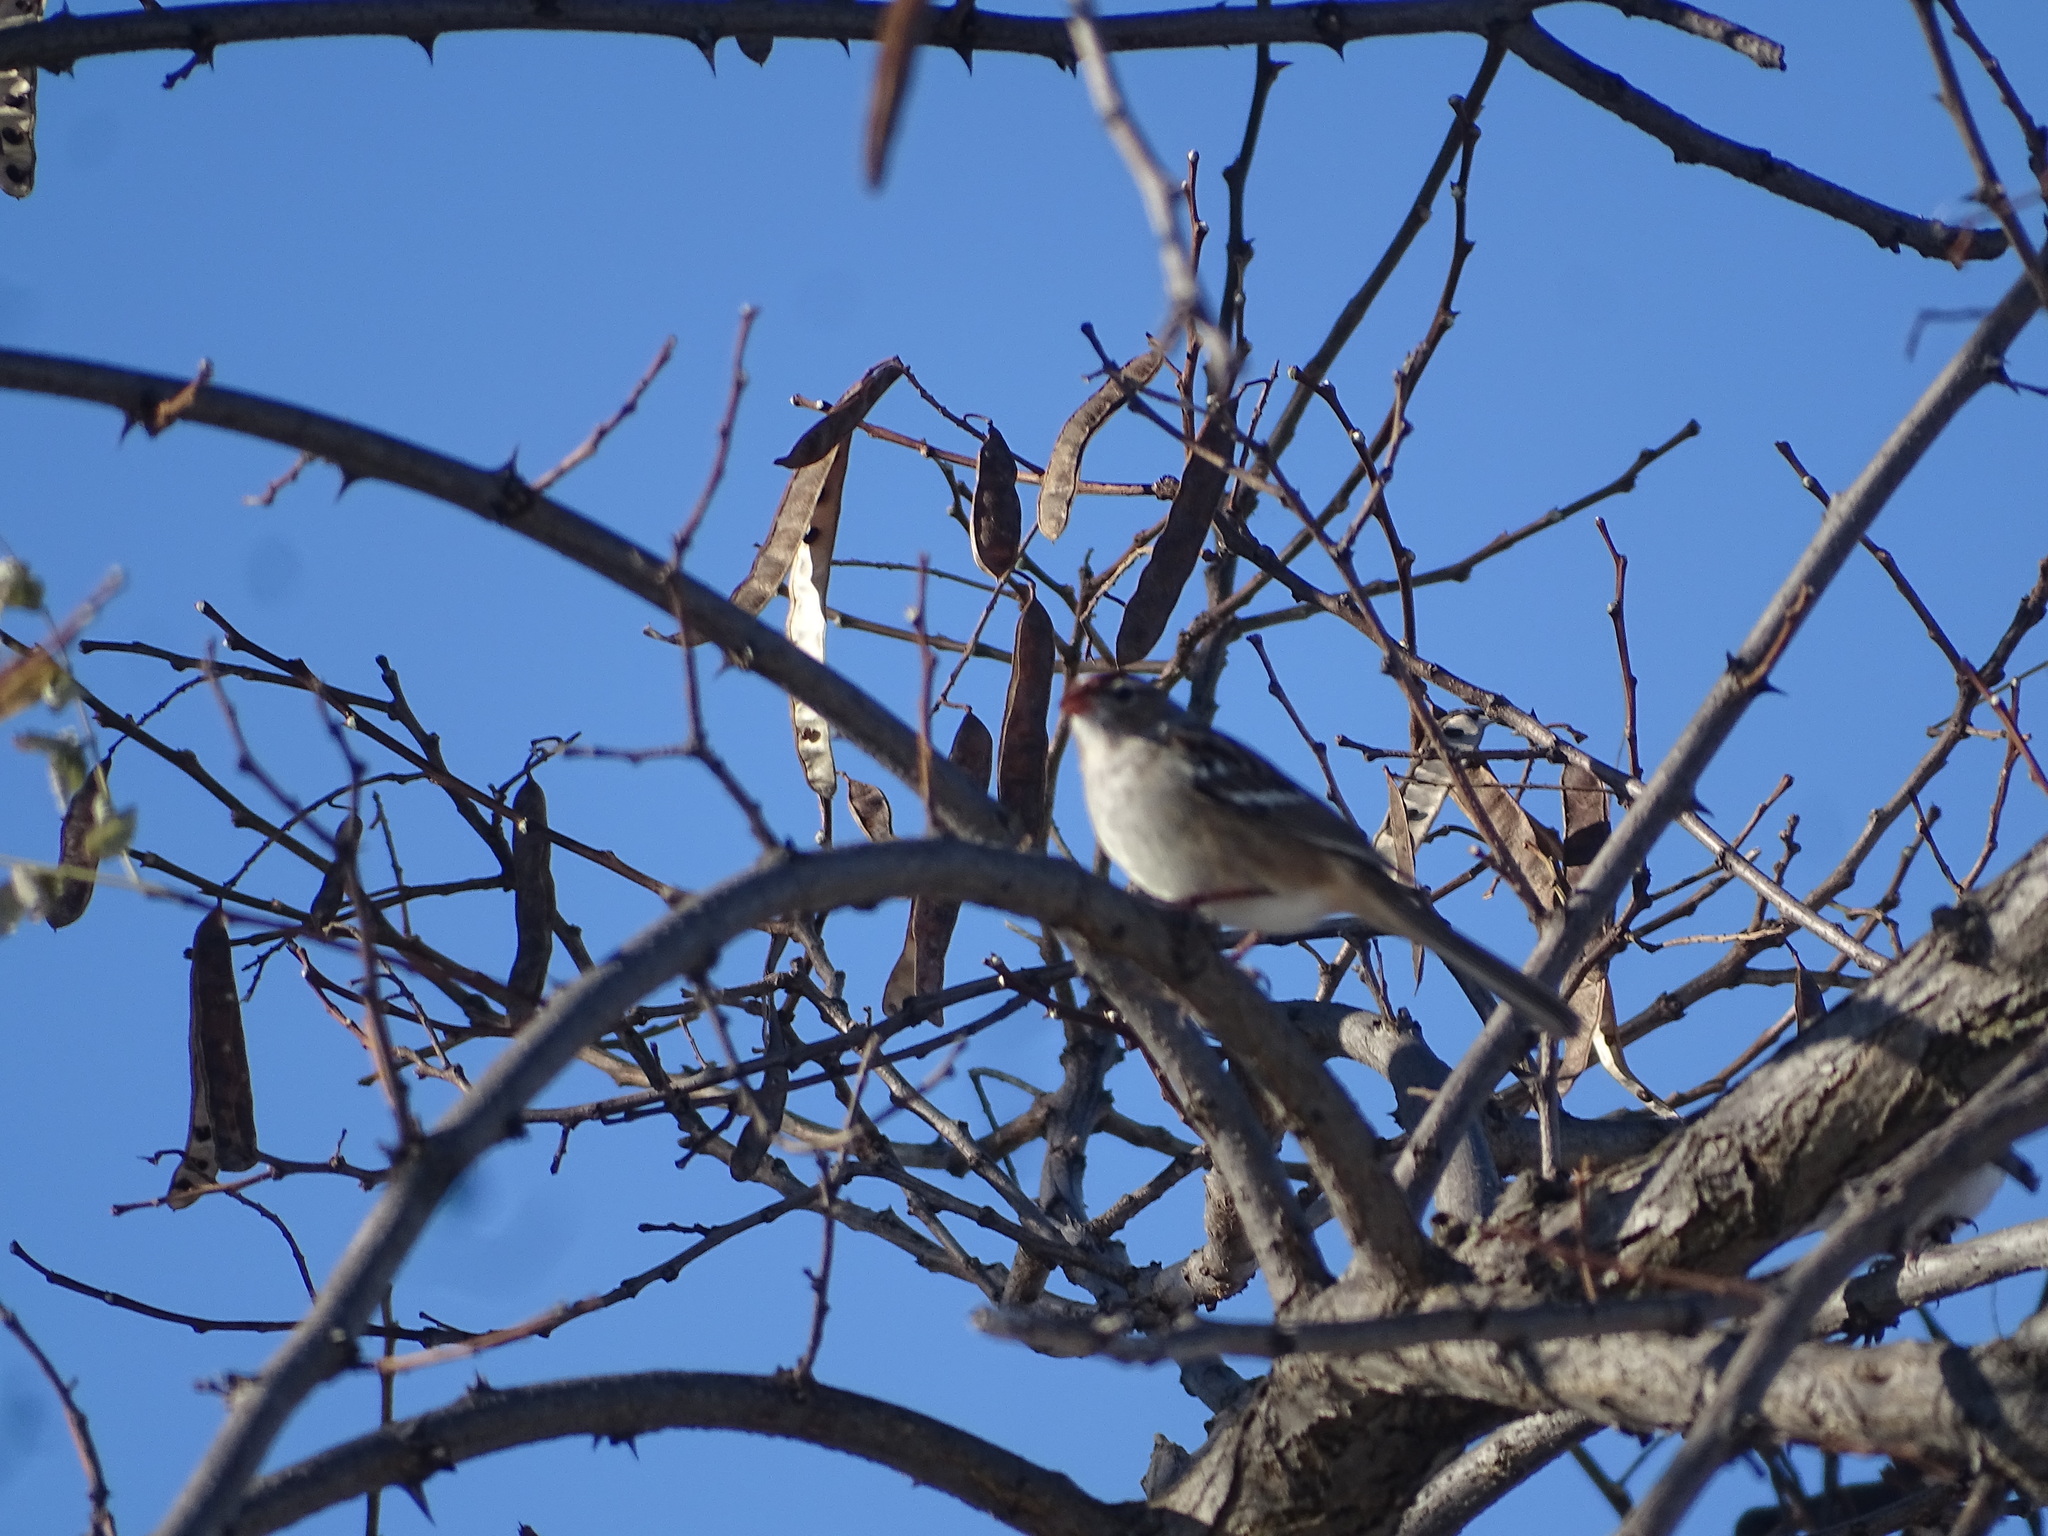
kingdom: Animalia
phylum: Chordata
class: Aves
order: Passeriformes
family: Passerellidae
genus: Zonotrichia
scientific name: Zonotrichia leucophrys
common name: White-crowned sparrow
